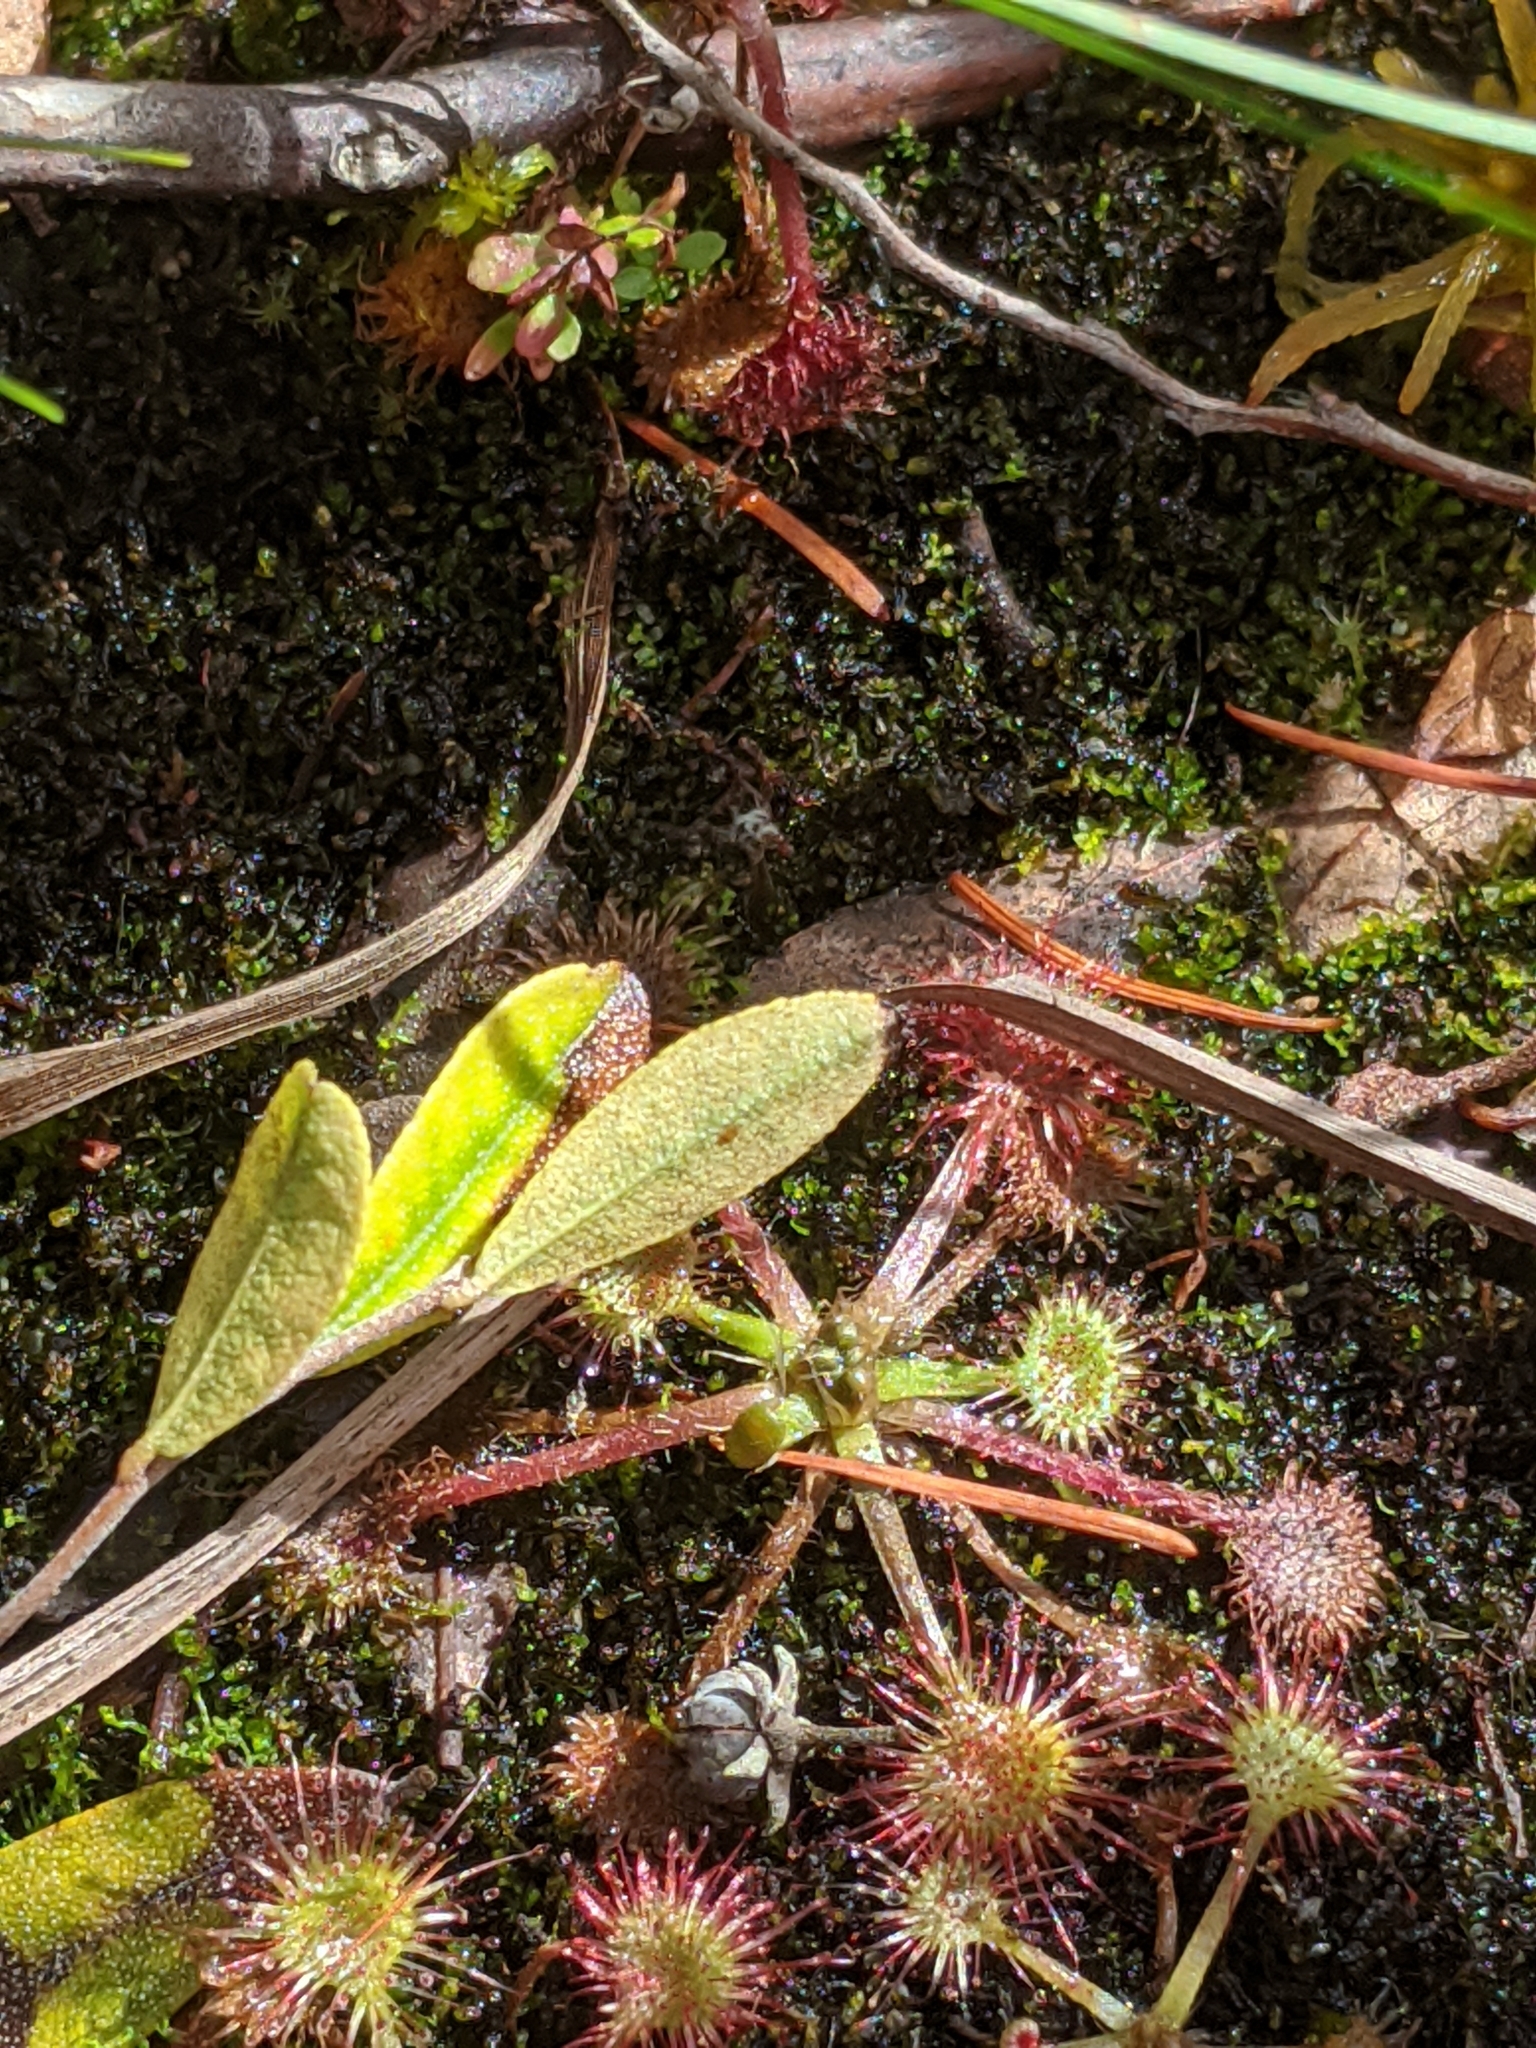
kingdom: Plantae
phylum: Tracheophyta
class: Magnoliopsida
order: Caryophyllales
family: Droseraceae
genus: Drosera
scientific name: Drosera rotundifolia
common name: Round-leaved sundew
